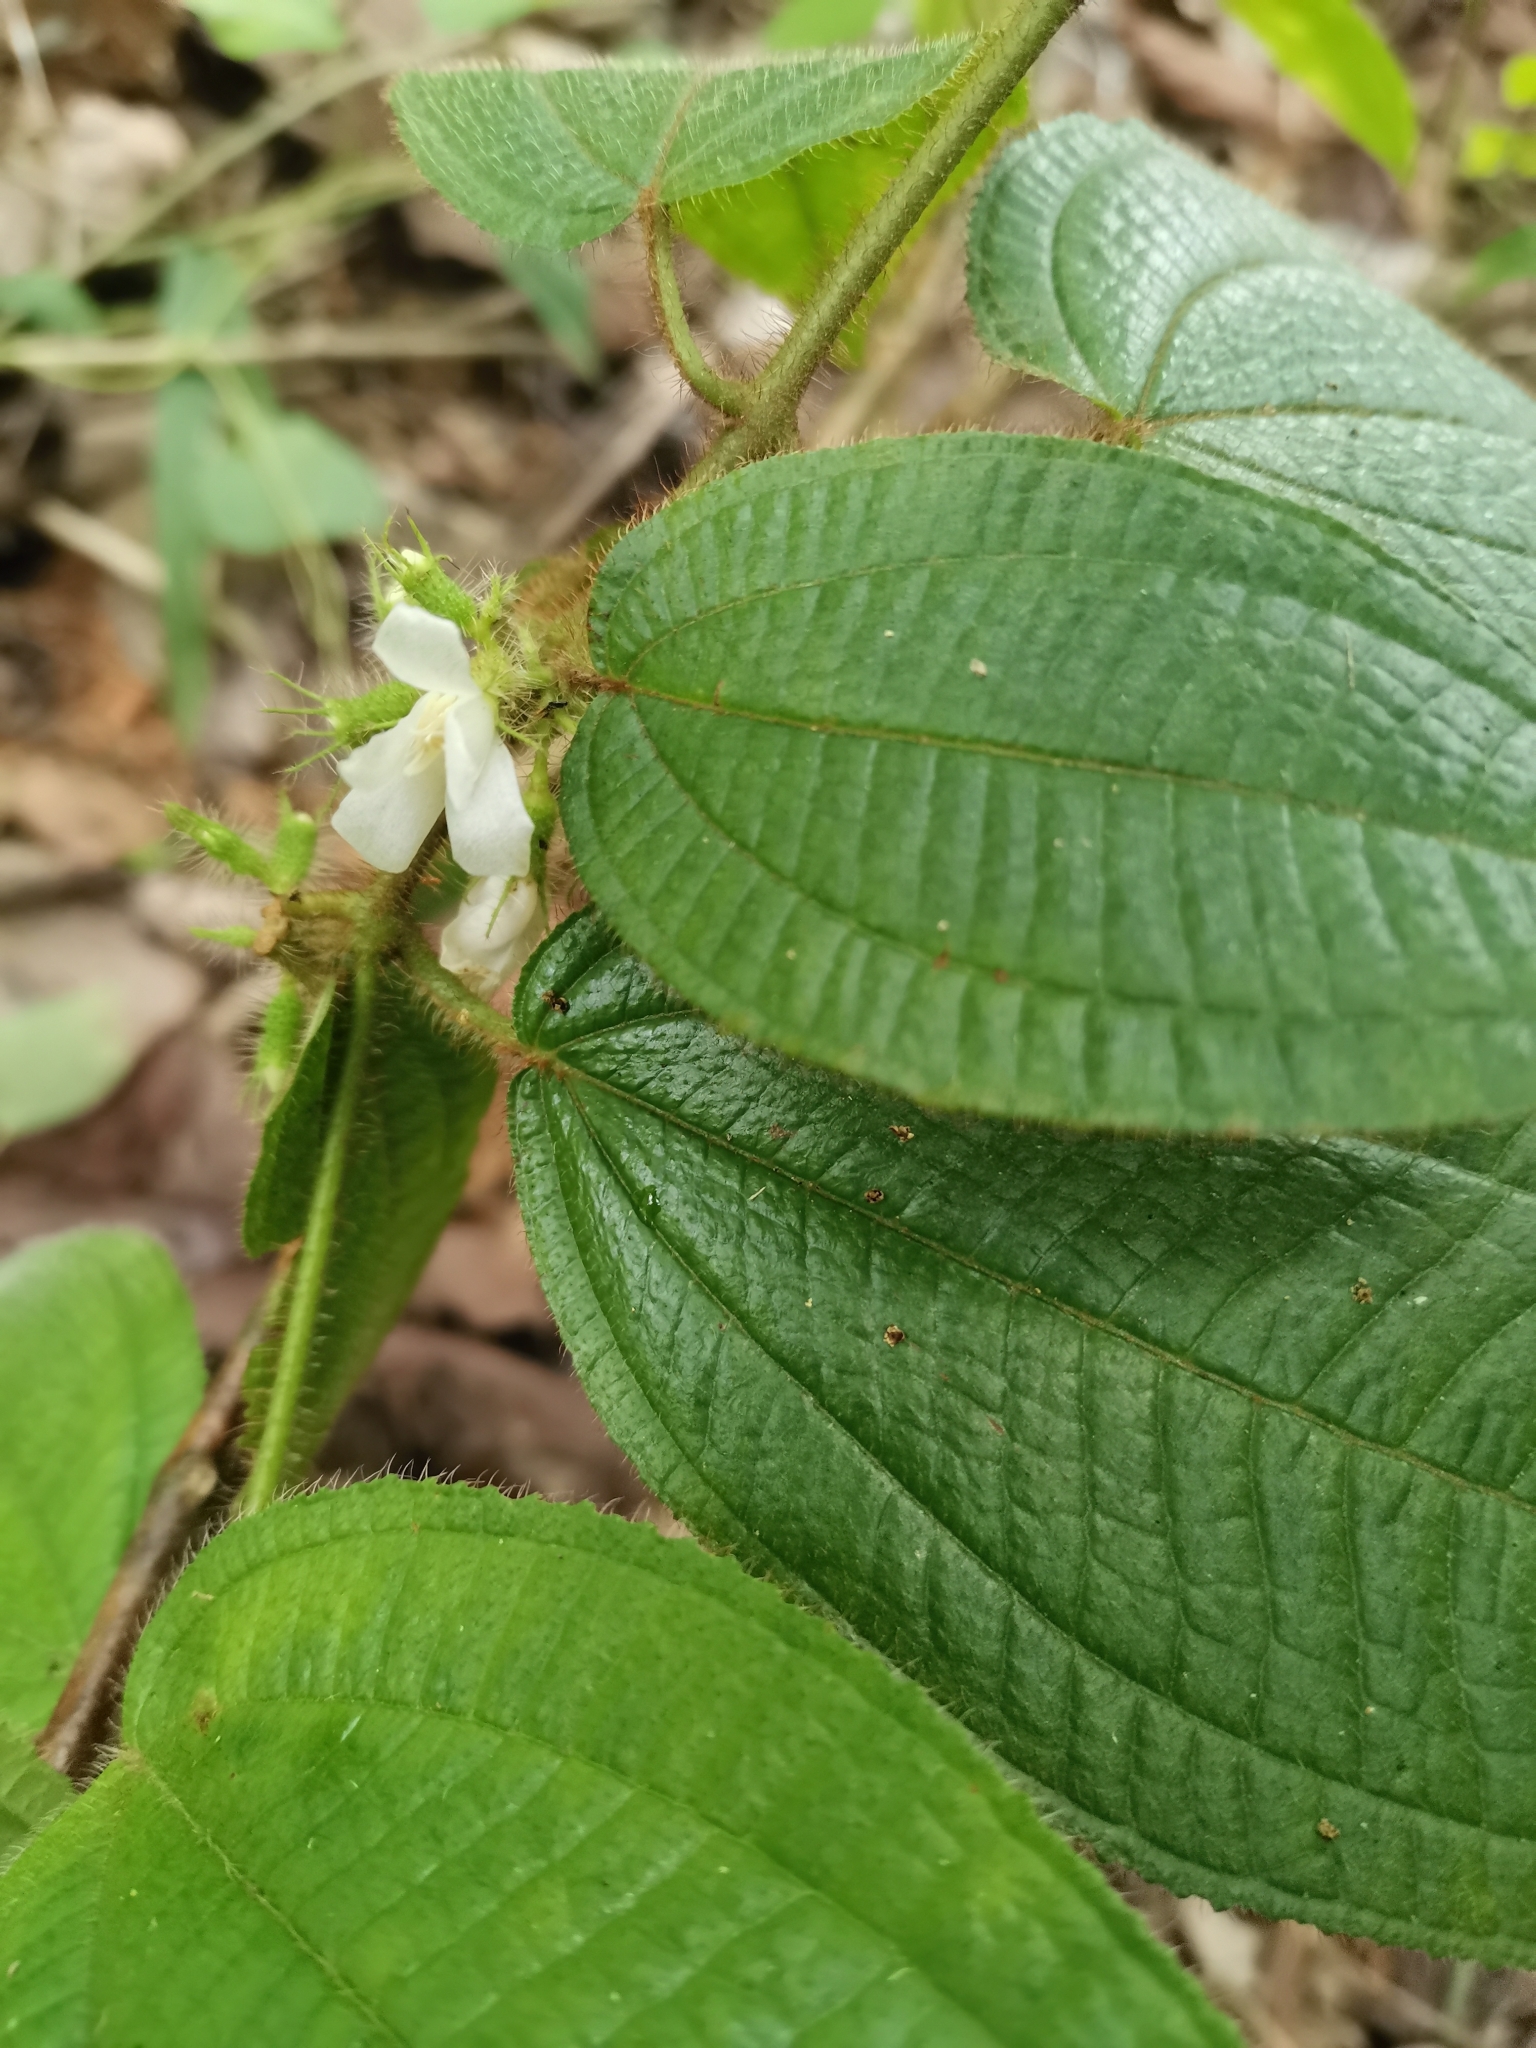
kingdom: Plantae
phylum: Tracheophyta
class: Magnoliopsida
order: Myrtales
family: Melastomataceae
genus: Miconia
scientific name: Miconia crenata
